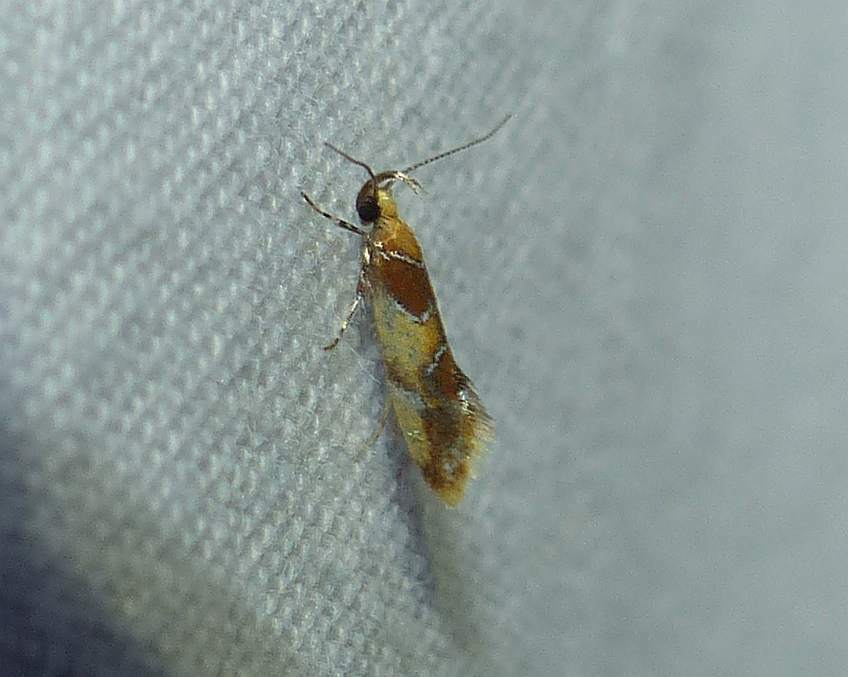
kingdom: Animalia
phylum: Arthropoda
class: Insecta
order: Lepidoptera
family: Oecophoridae
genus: Callima
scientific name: Callima argenticinctella
